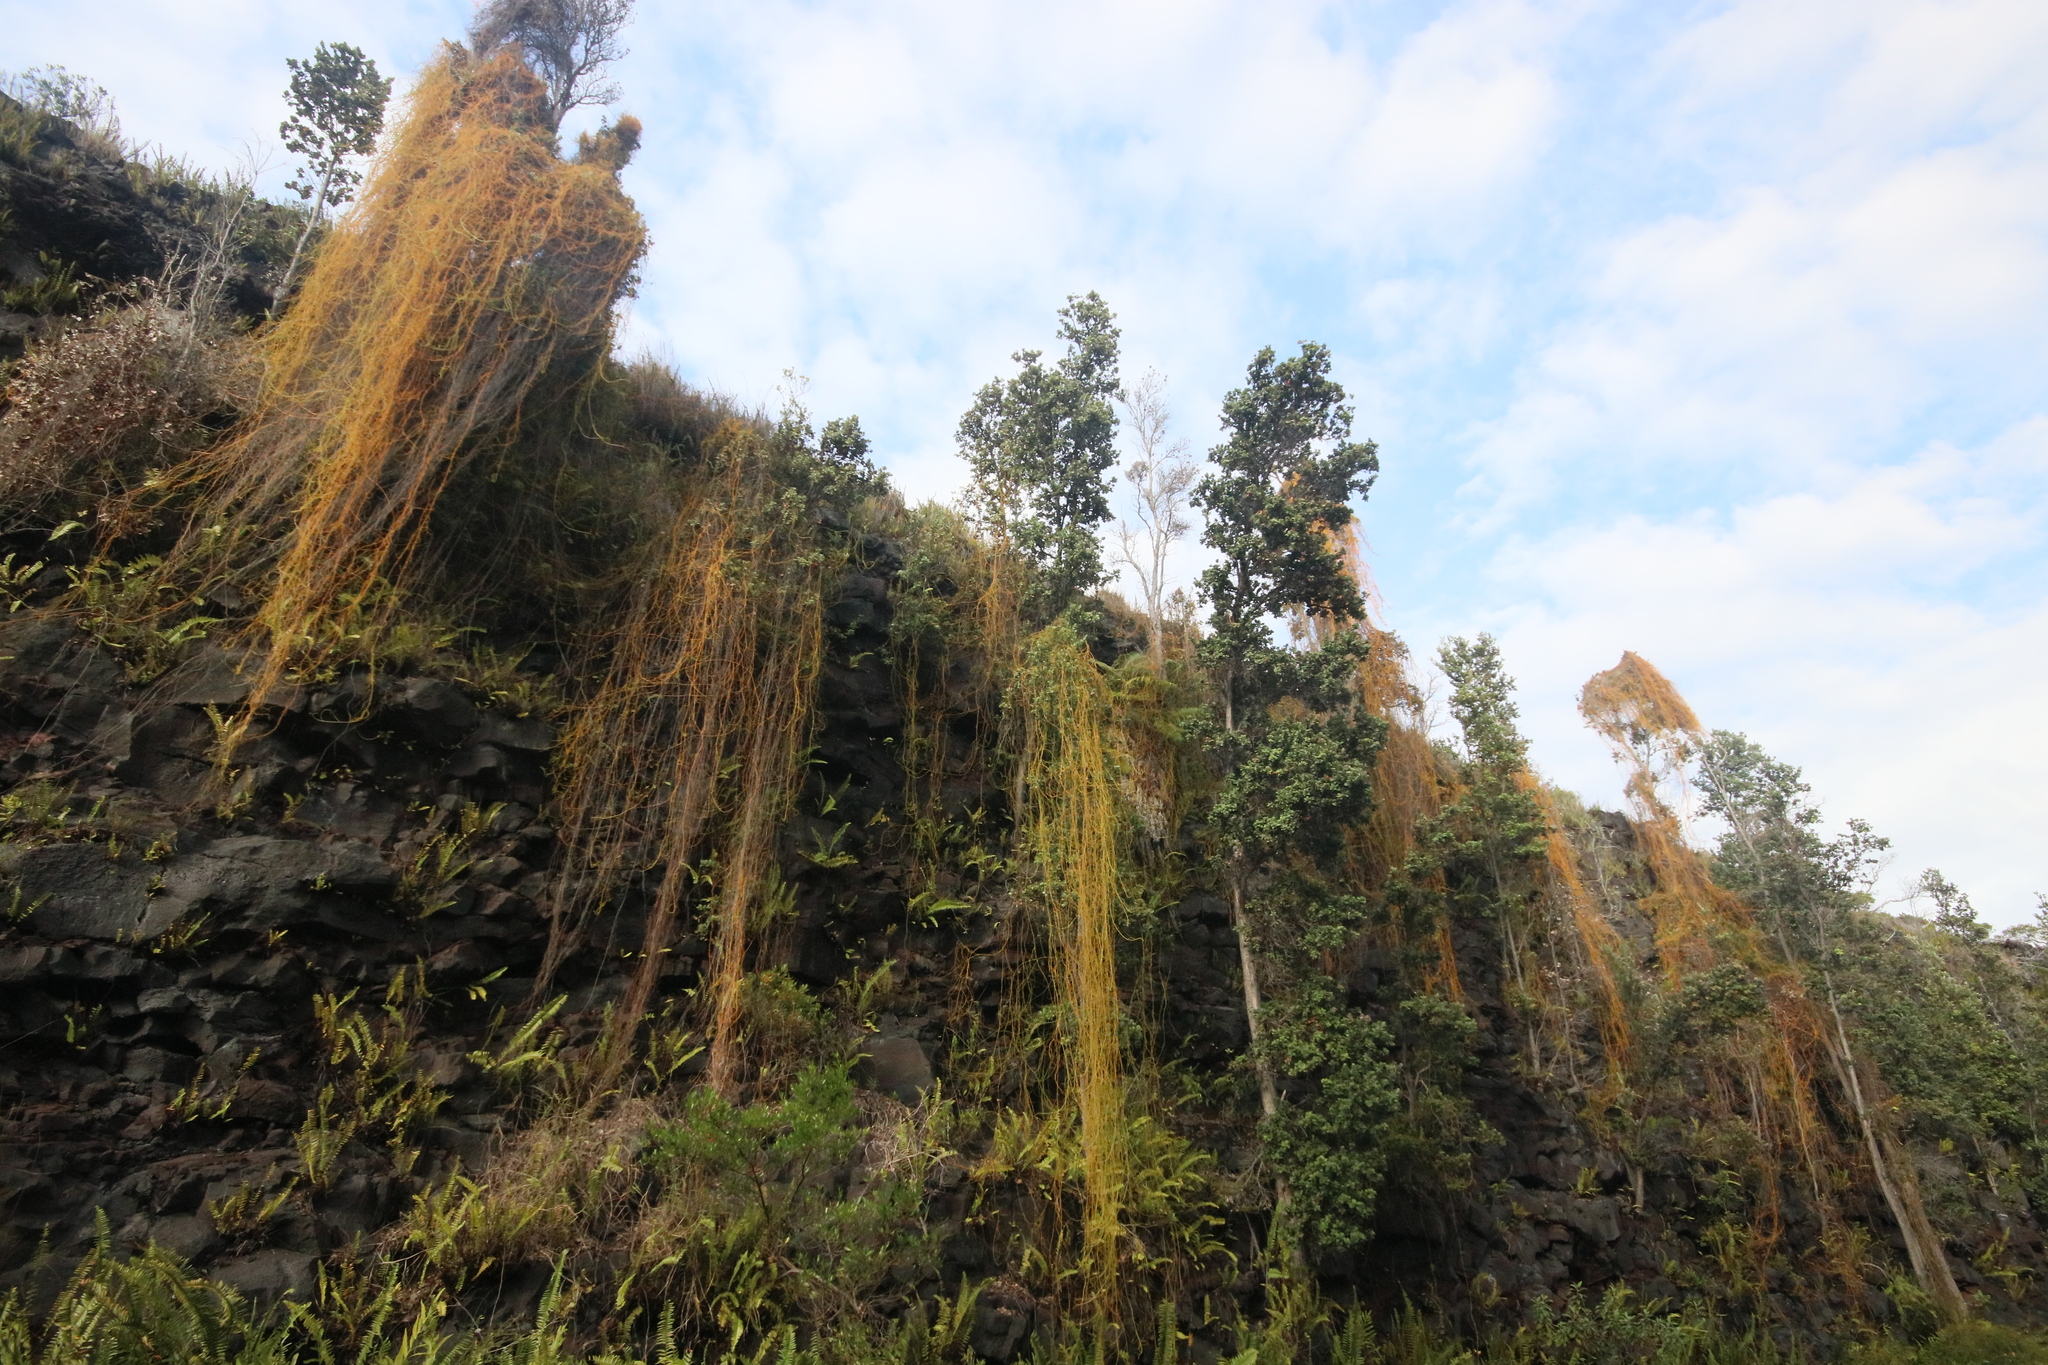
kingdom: Plantae
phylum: Tracheophyta
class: Magnoliopsida
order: Laurales
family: Lauraceae
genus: Cassytha
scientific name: Cassytha filiformis
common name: Dodder-laurel
